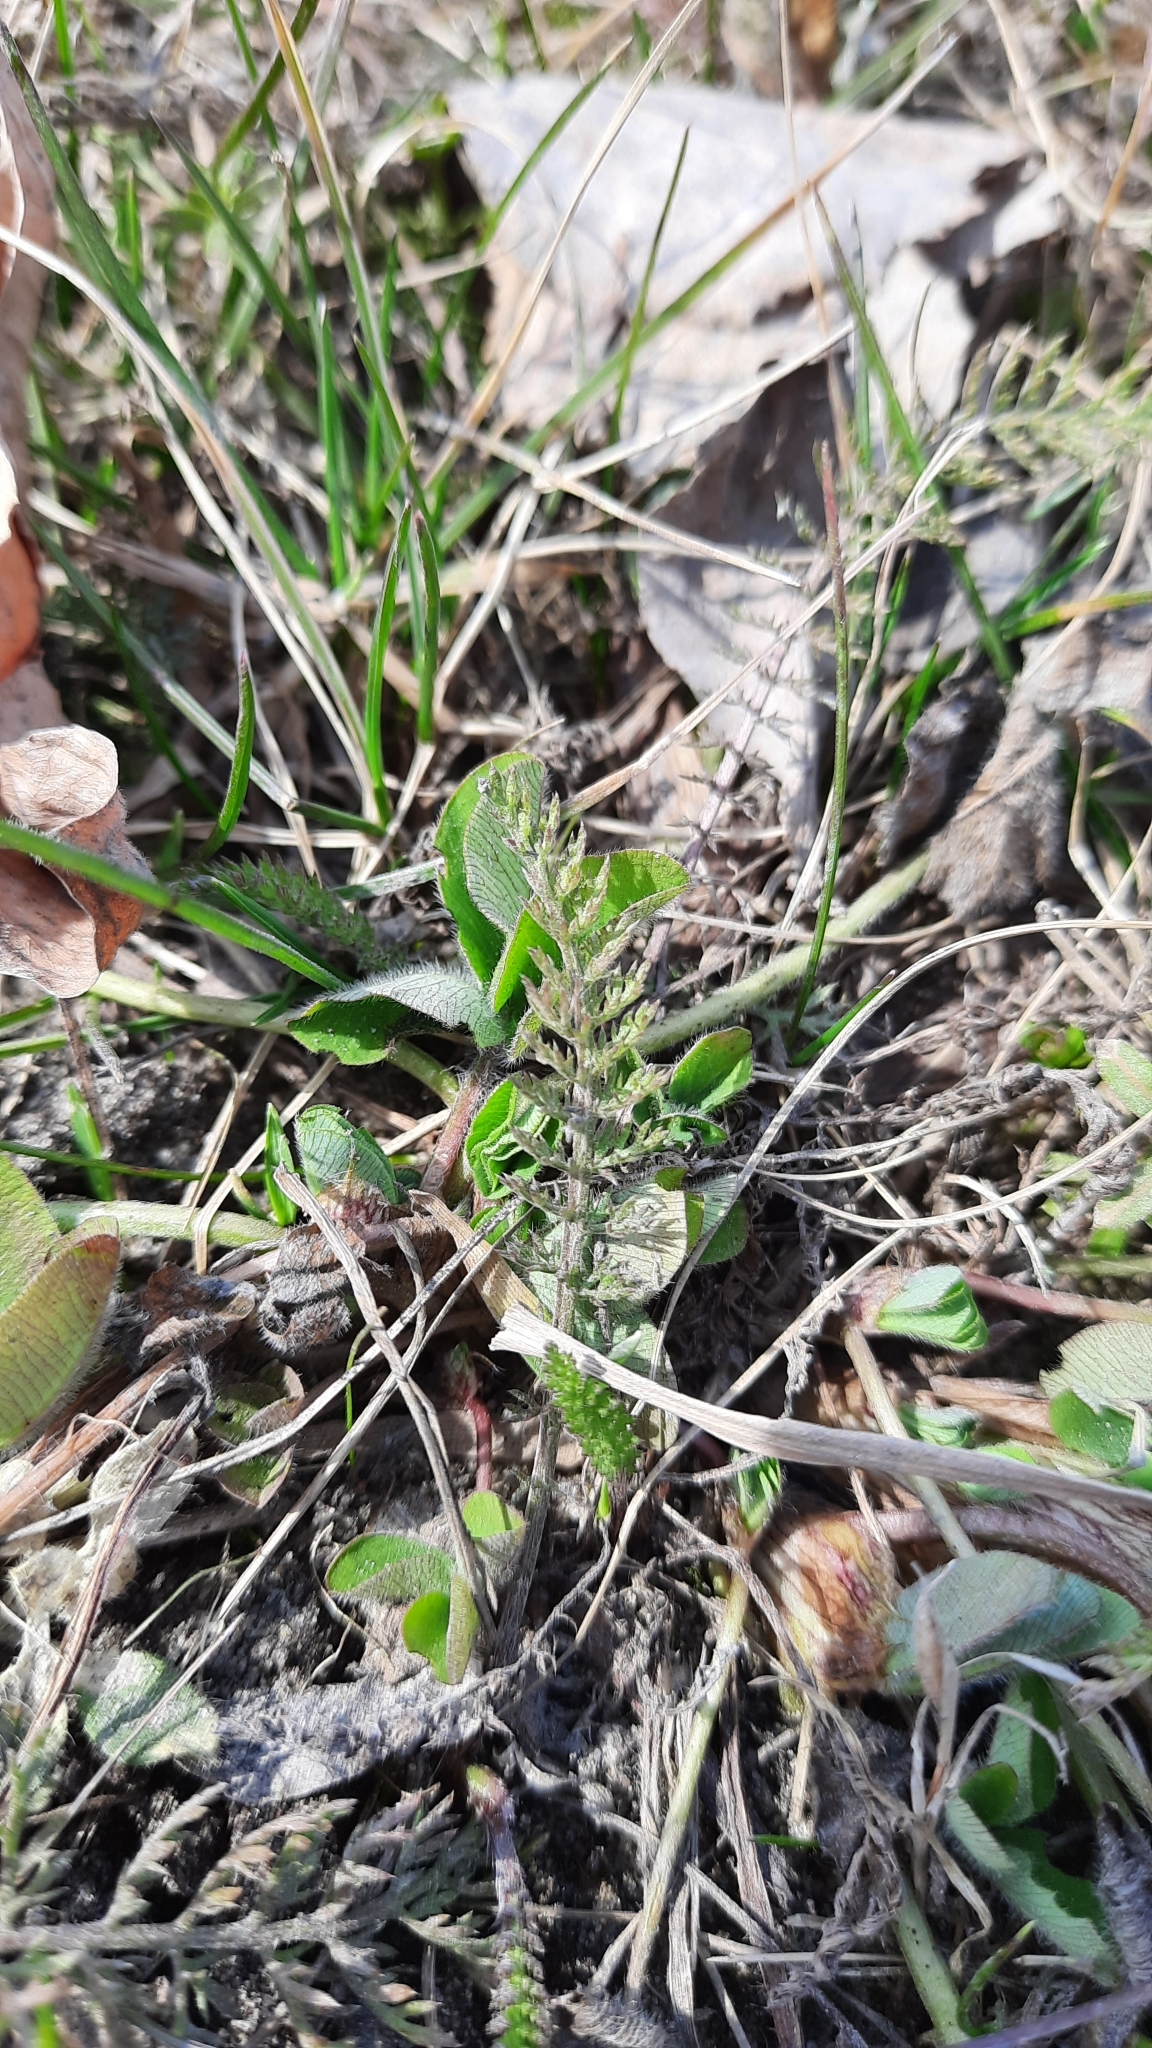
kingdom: Plantae
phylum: Tracheophyta
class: Magnoliopsida
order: Asterales
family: Asteraceae
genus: Achillea
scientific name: Achillea millefolium
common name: Yarrow
